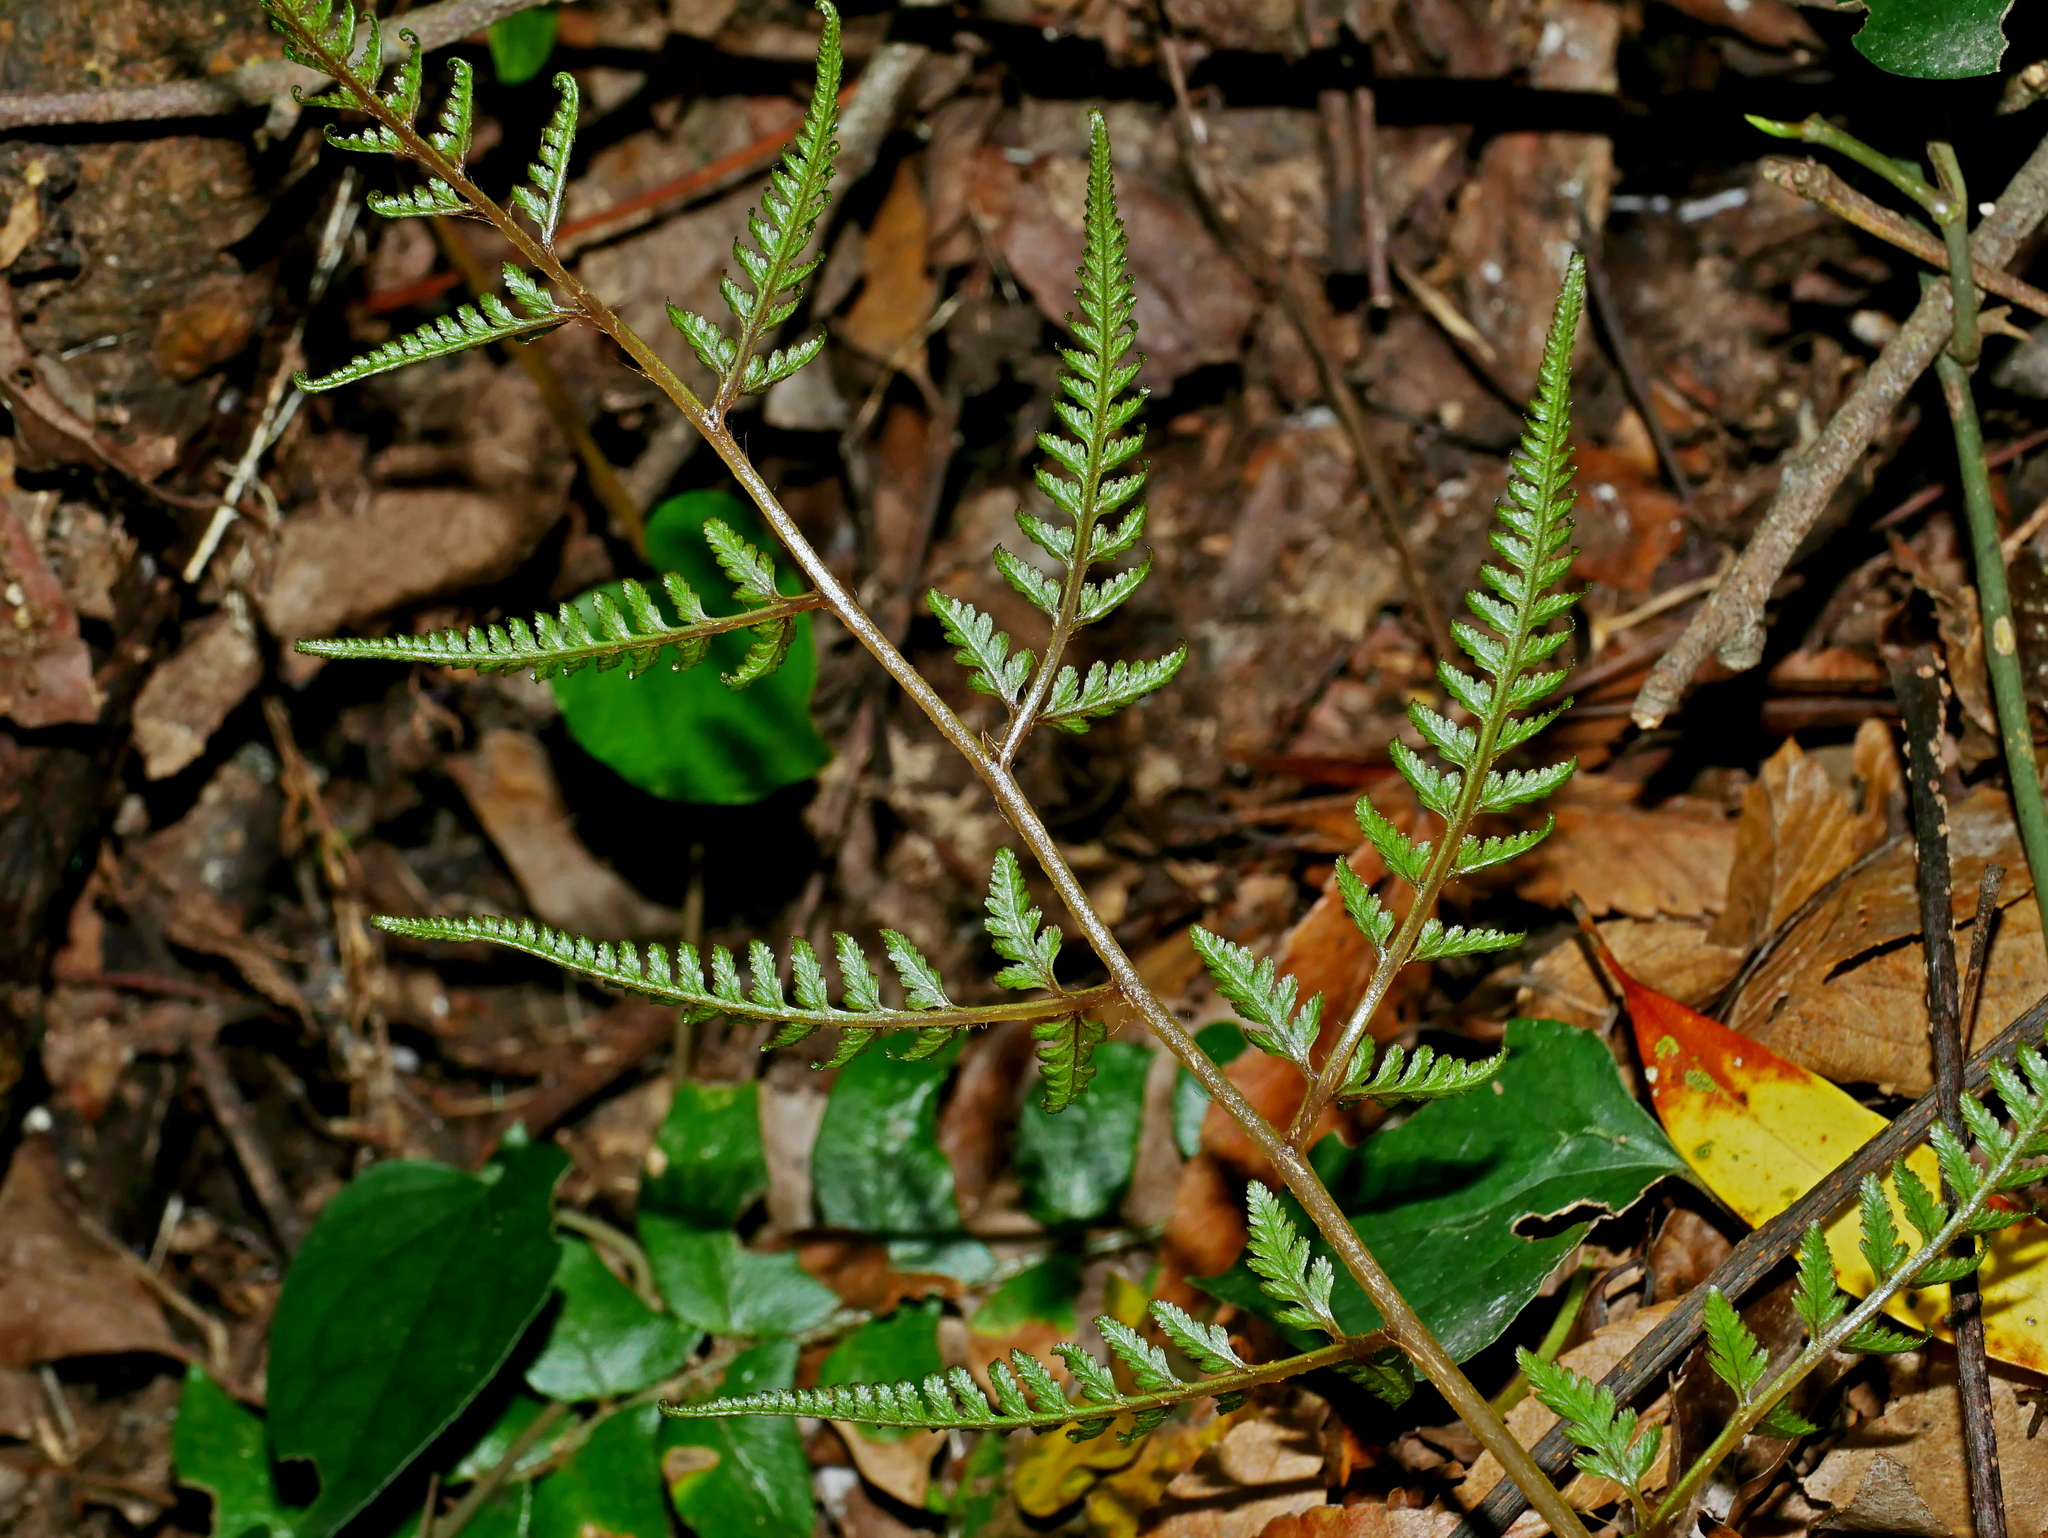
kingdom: Plantae
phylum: Tracheophyta
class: Polypodiopsida
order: Polypodiales
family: Athyriaceae
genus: Anisocampium
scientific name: Anisocampium niponicum
